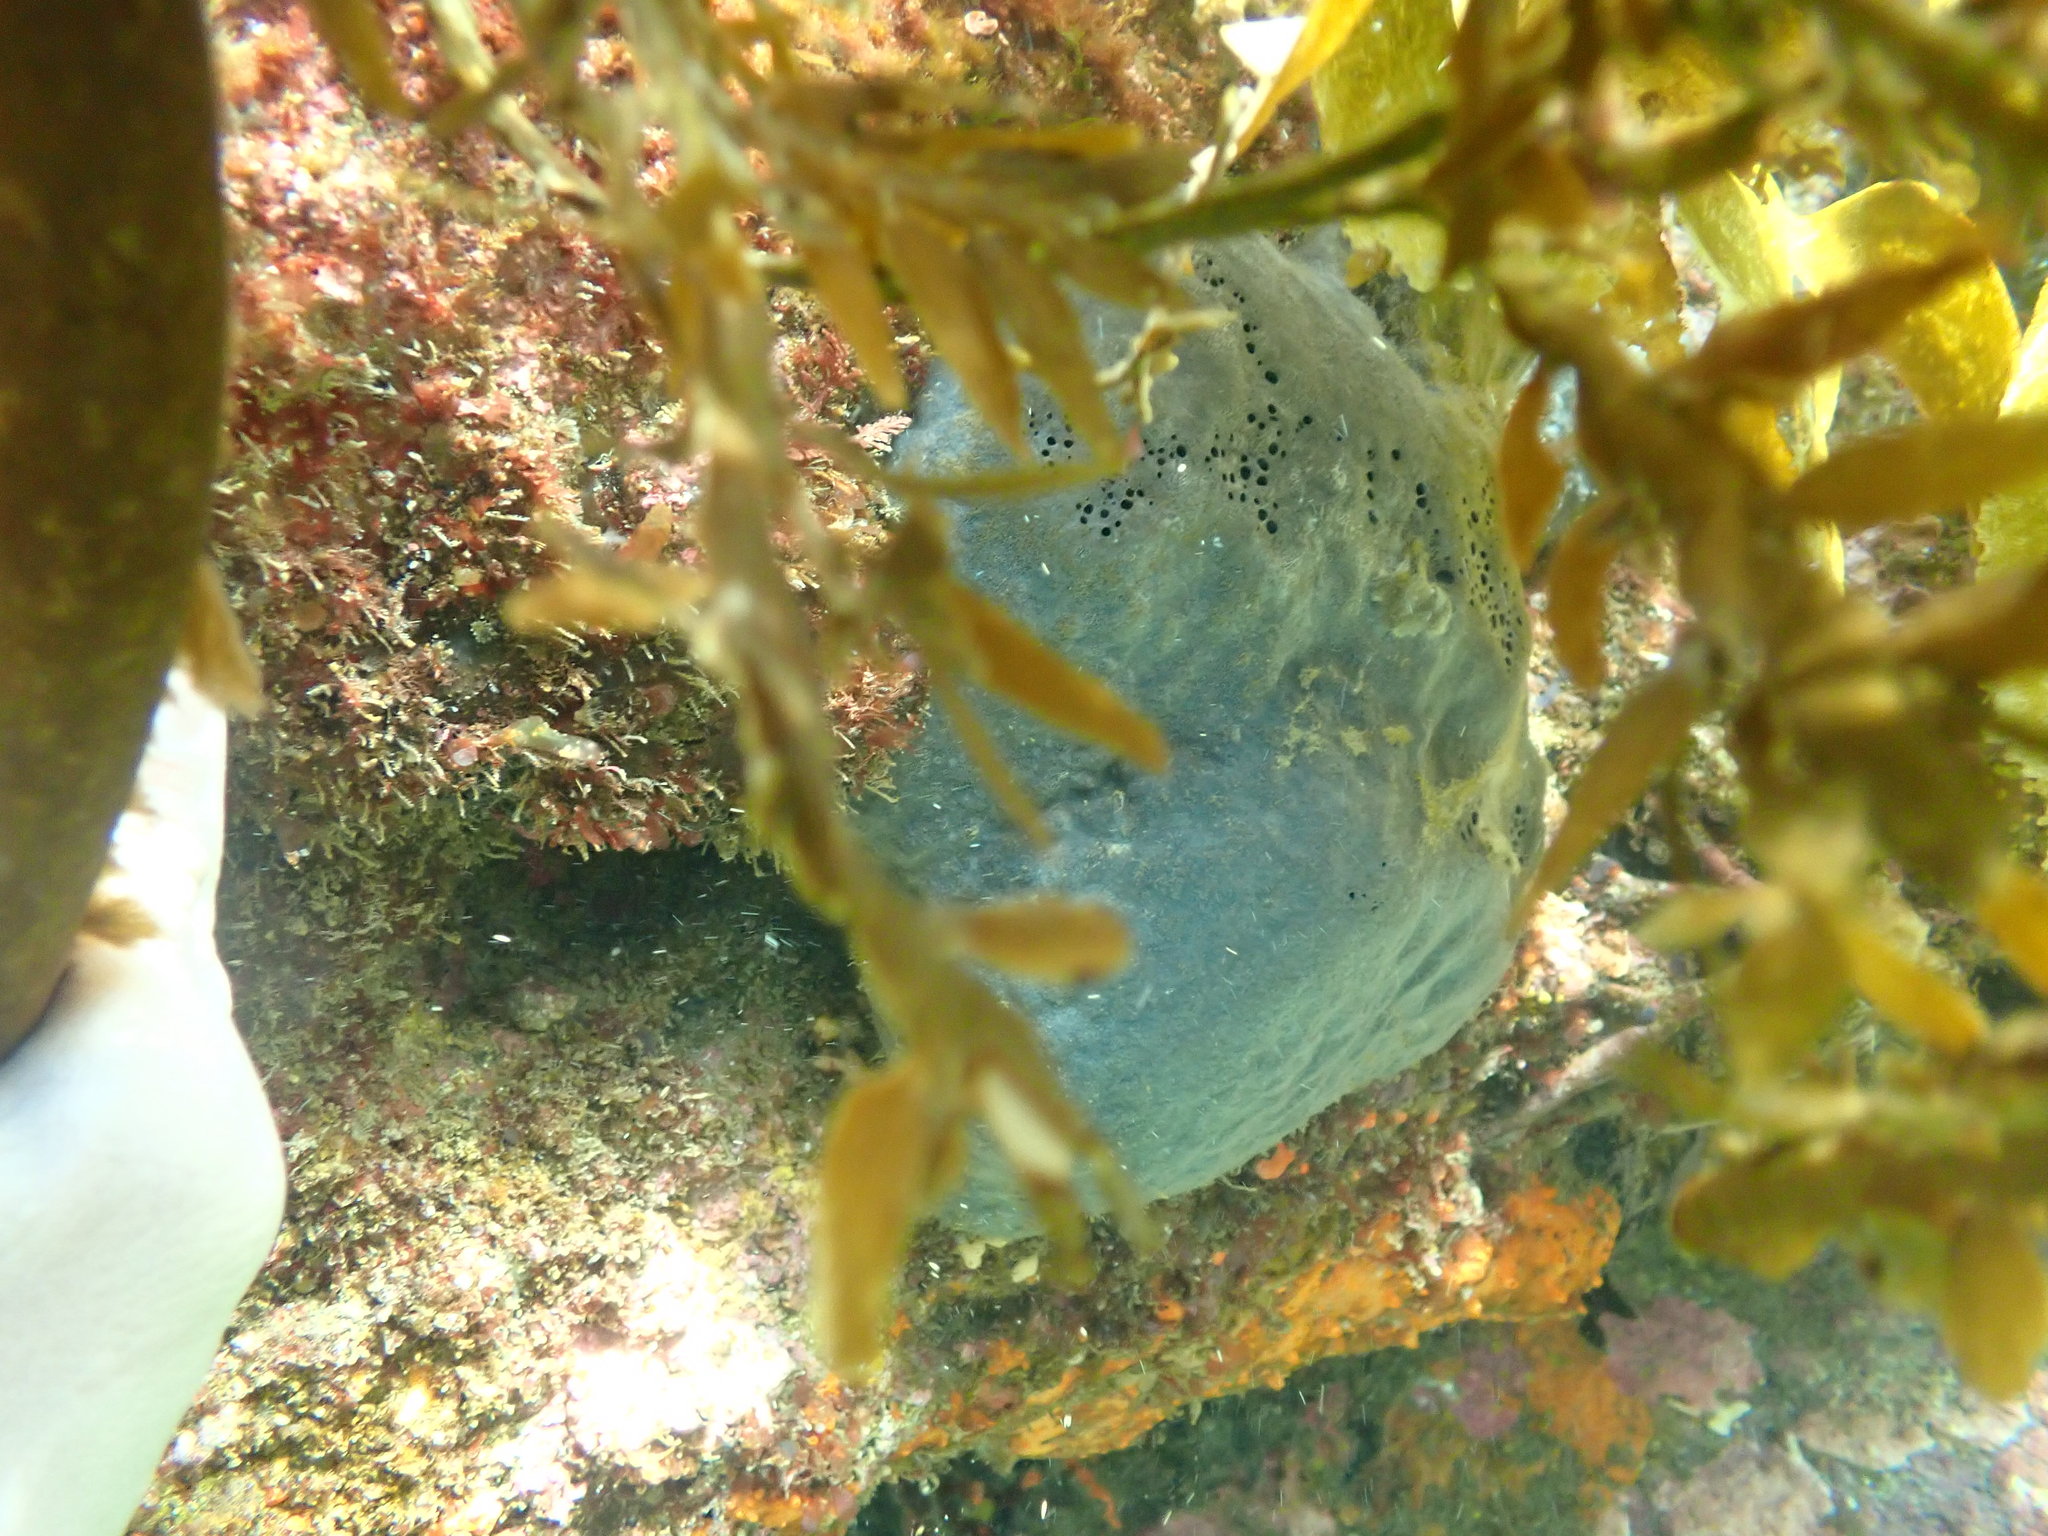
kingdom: Animalia
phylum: Porifera
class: Demospongiae
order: Dictyoceratida
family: Irciniidae
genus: Psammocinia
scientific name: Psammocinia perforodosa
